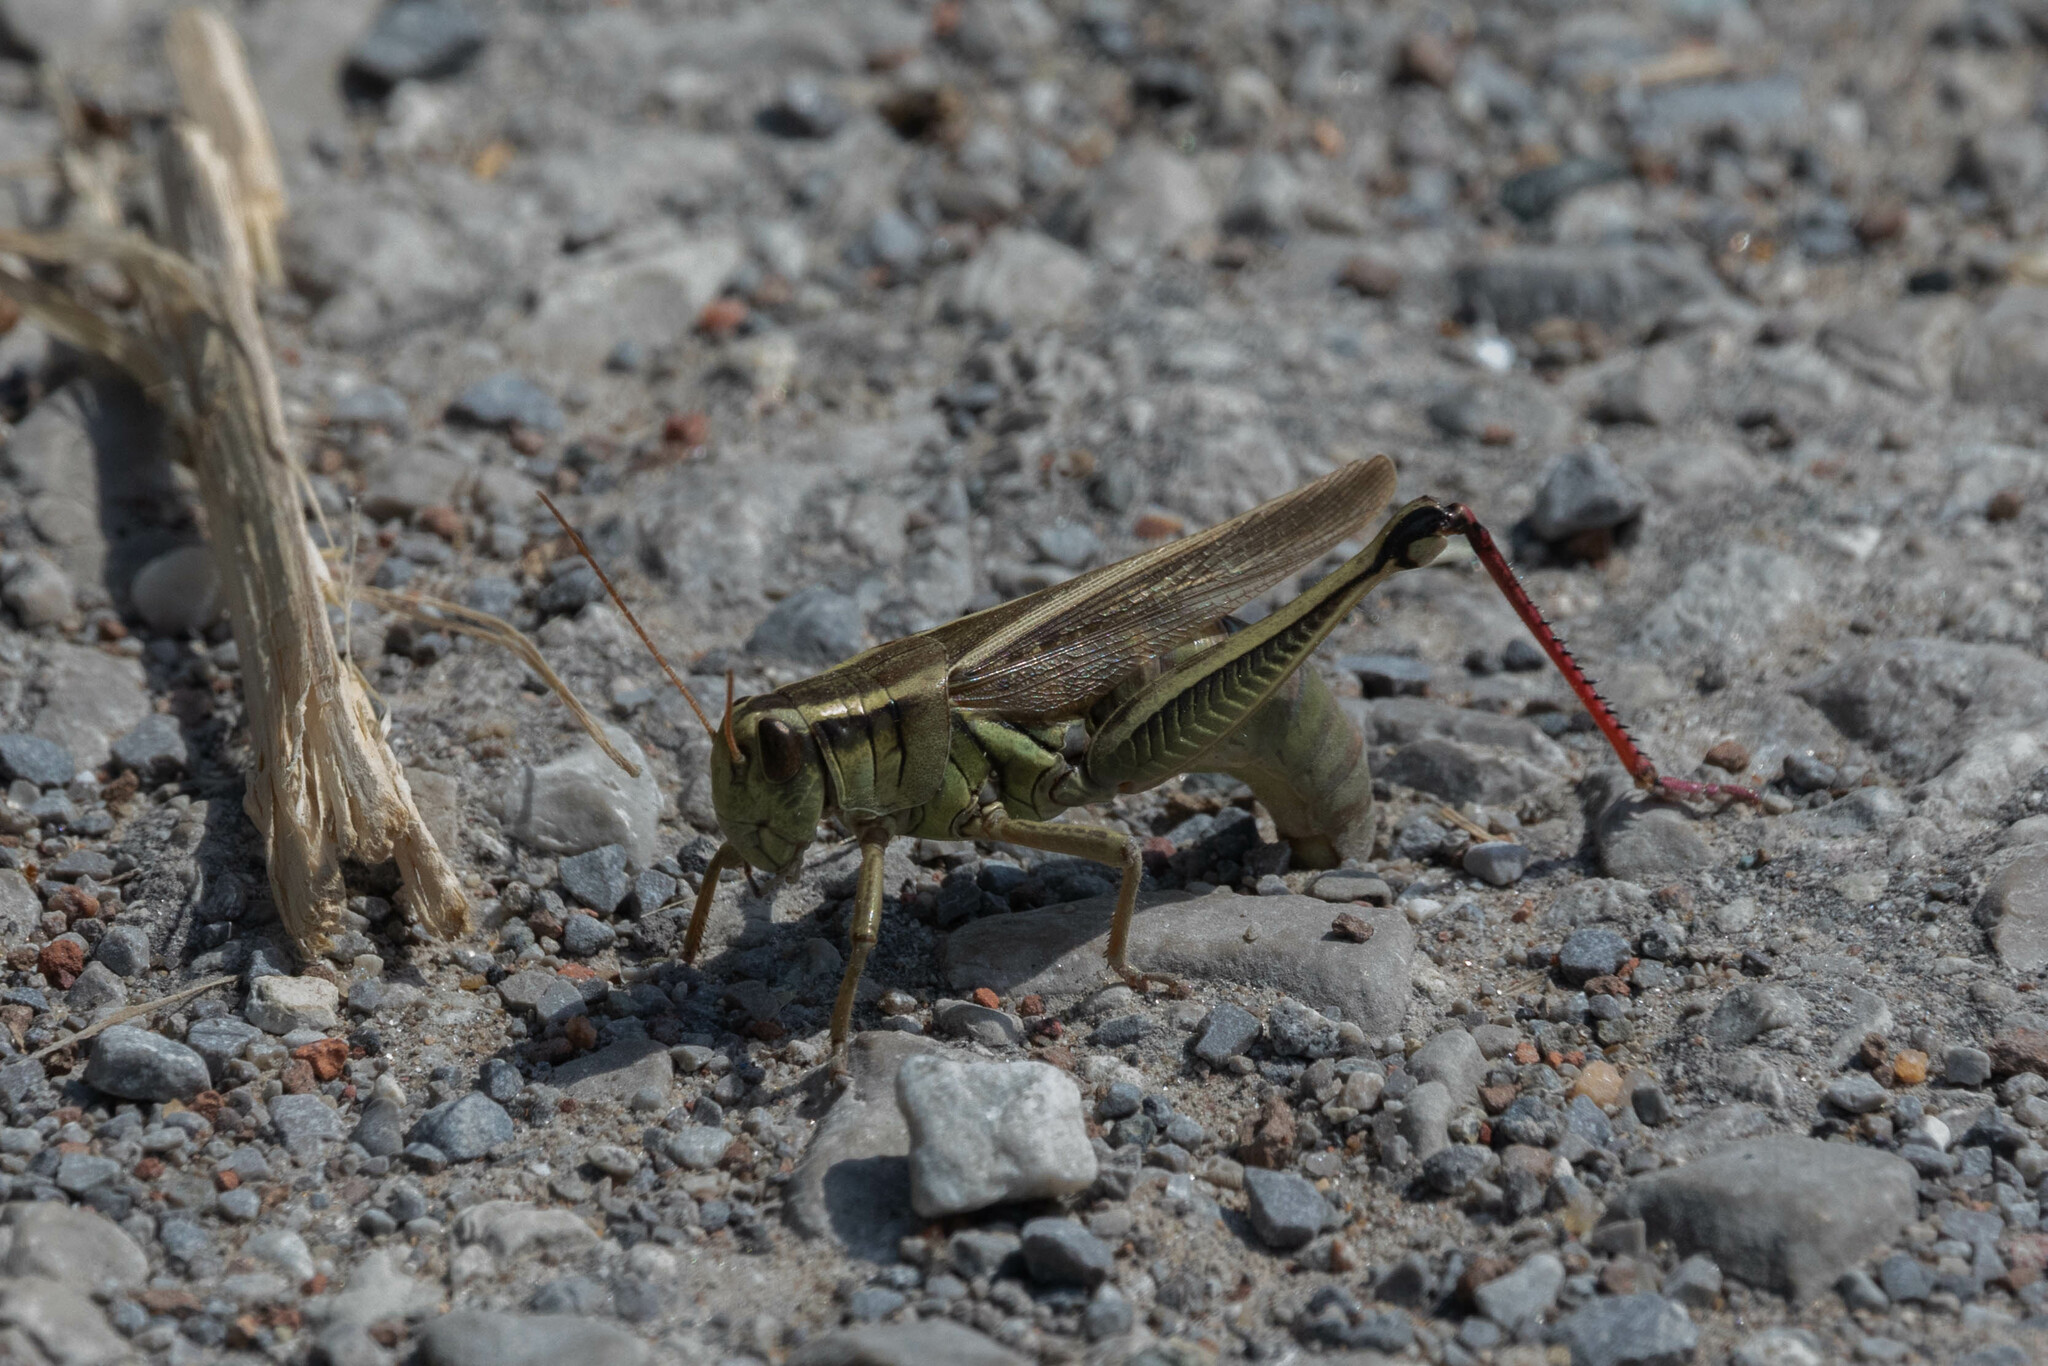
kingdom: Animalia
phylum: Arthropoda
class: Insecta
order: Orthoptera
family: Acrididae
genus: Melanoplus
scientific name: Melanoplus bivittatus
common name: Two-striped grasshopper
